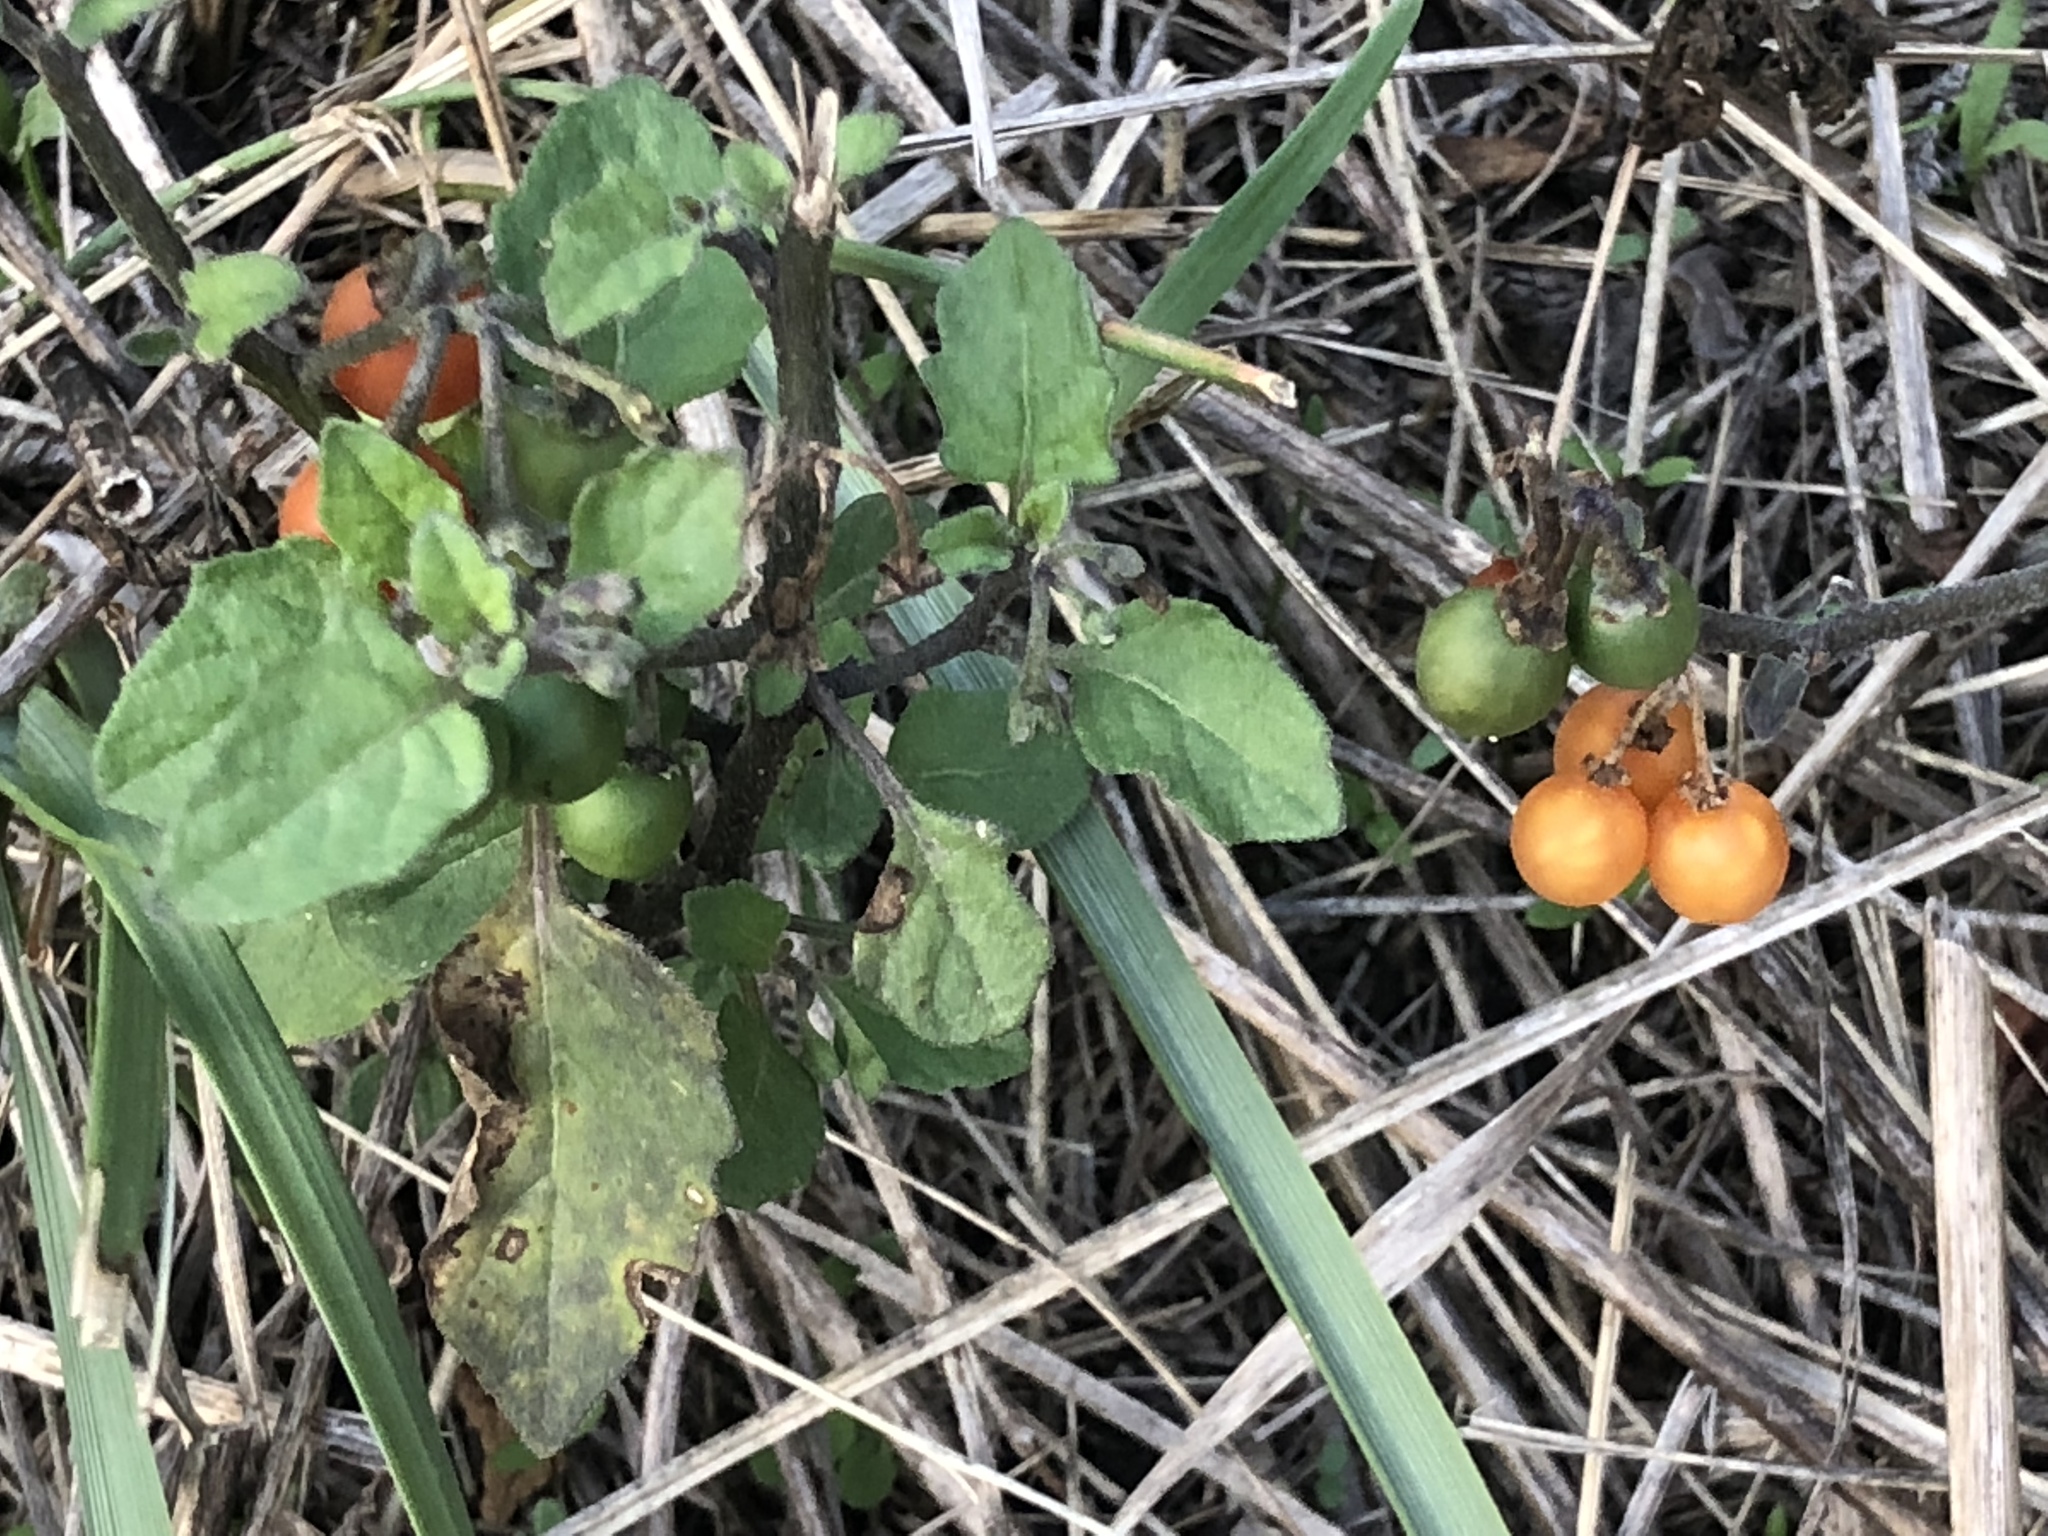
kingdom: Plantae
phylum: Tracheophyta
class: Magnoliopsida
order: Solanales
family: Solanaceae
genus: Solanum
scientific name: Solanum villosum
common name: Red nightshade
